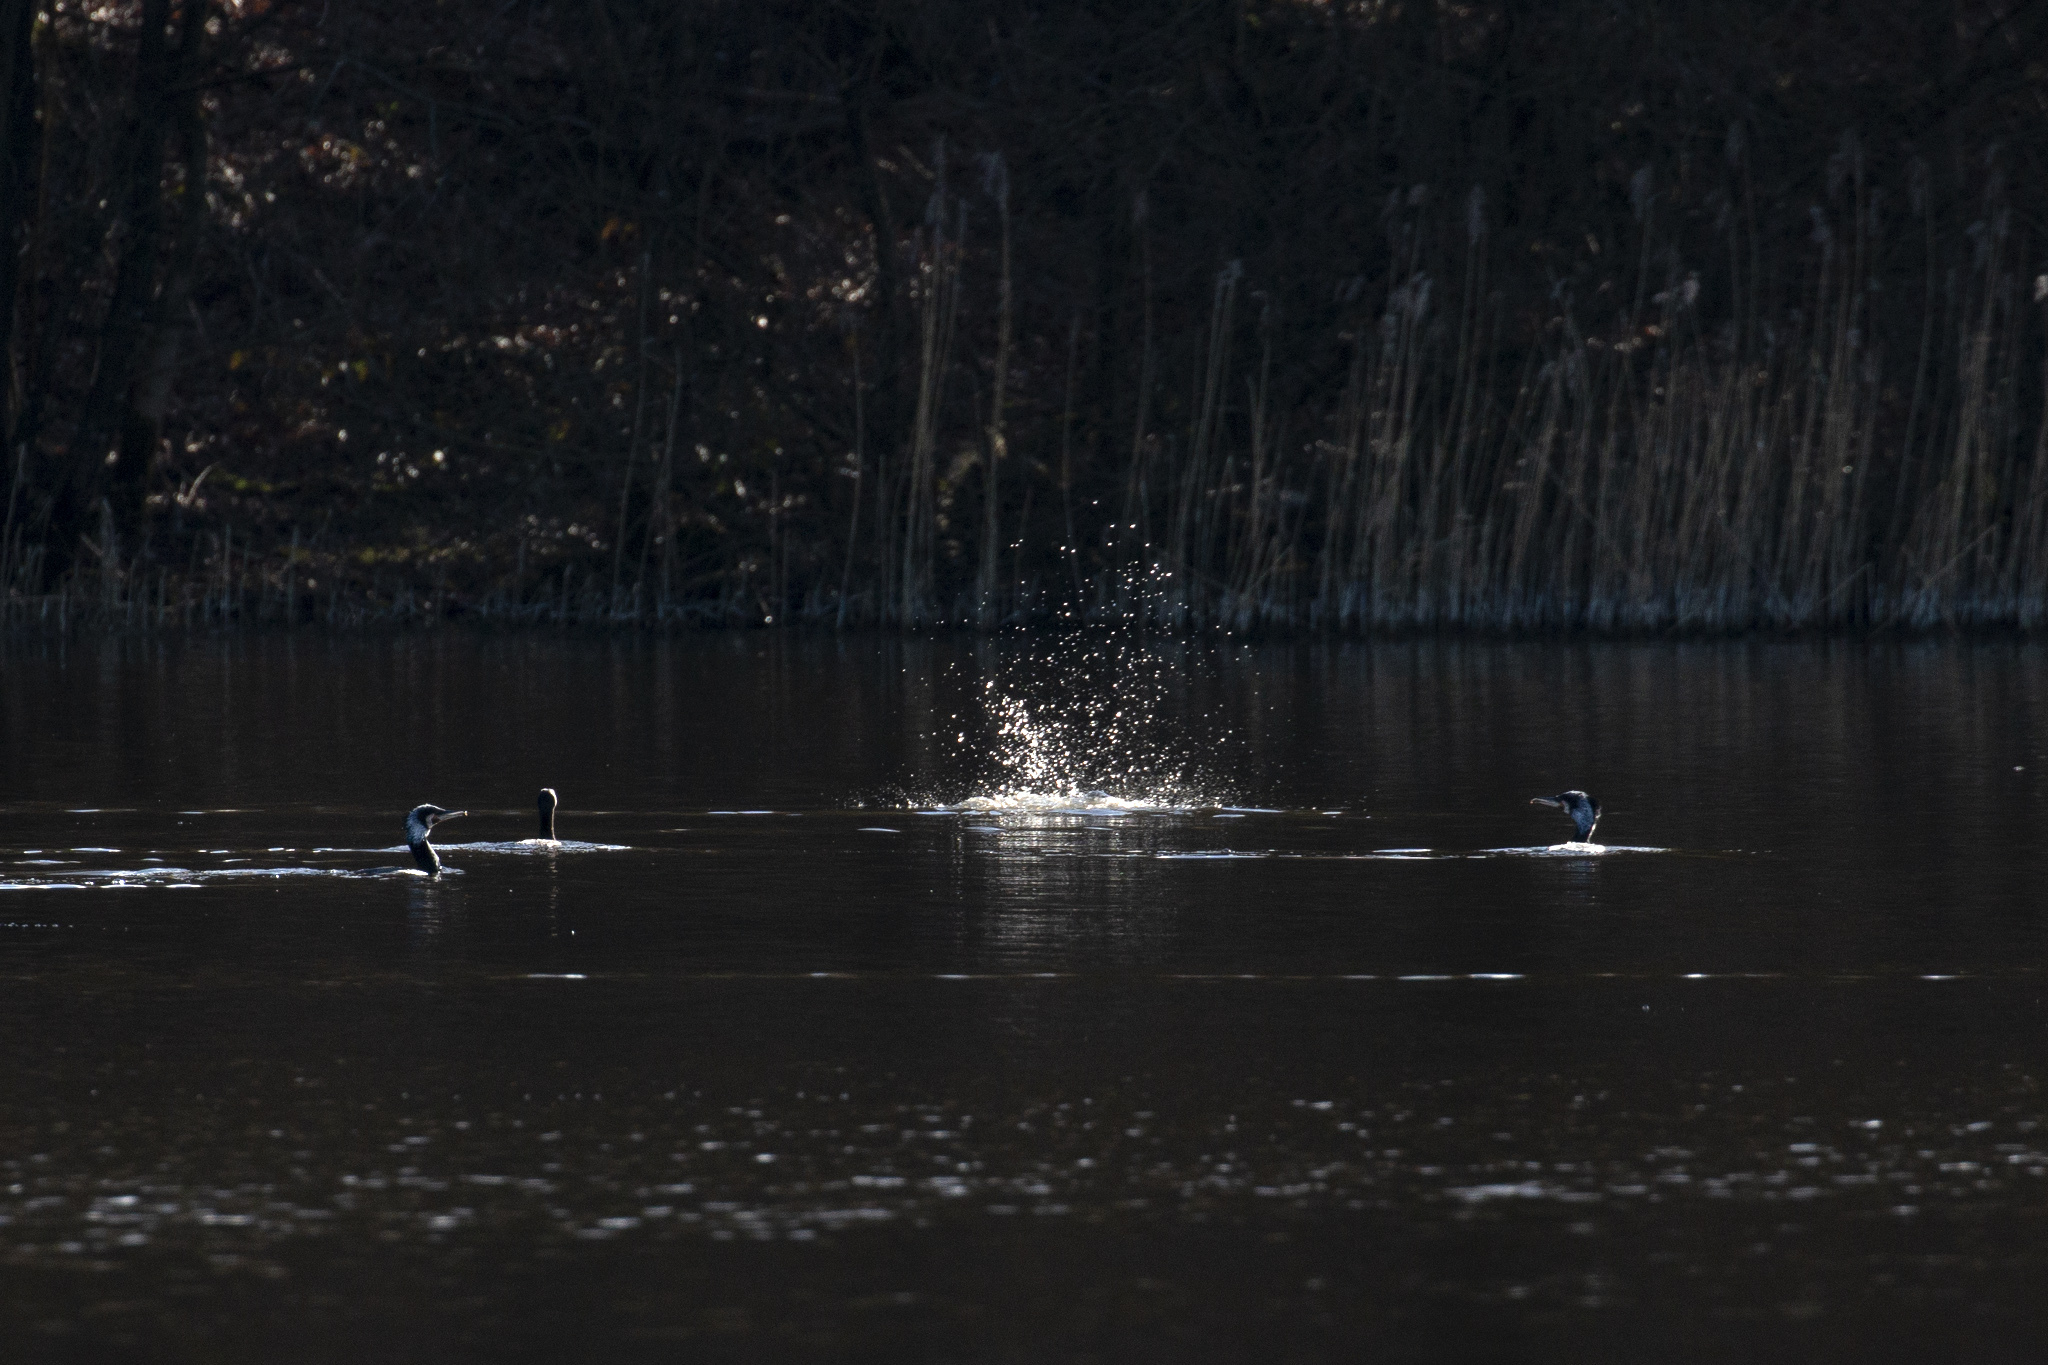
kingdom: Animalia
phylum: Chordata
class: Aves
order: Suliformes
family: Phalacrocoracidae
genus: Phalacrocorax
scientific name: Phalacrocorax carbo
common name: Great cormorant
